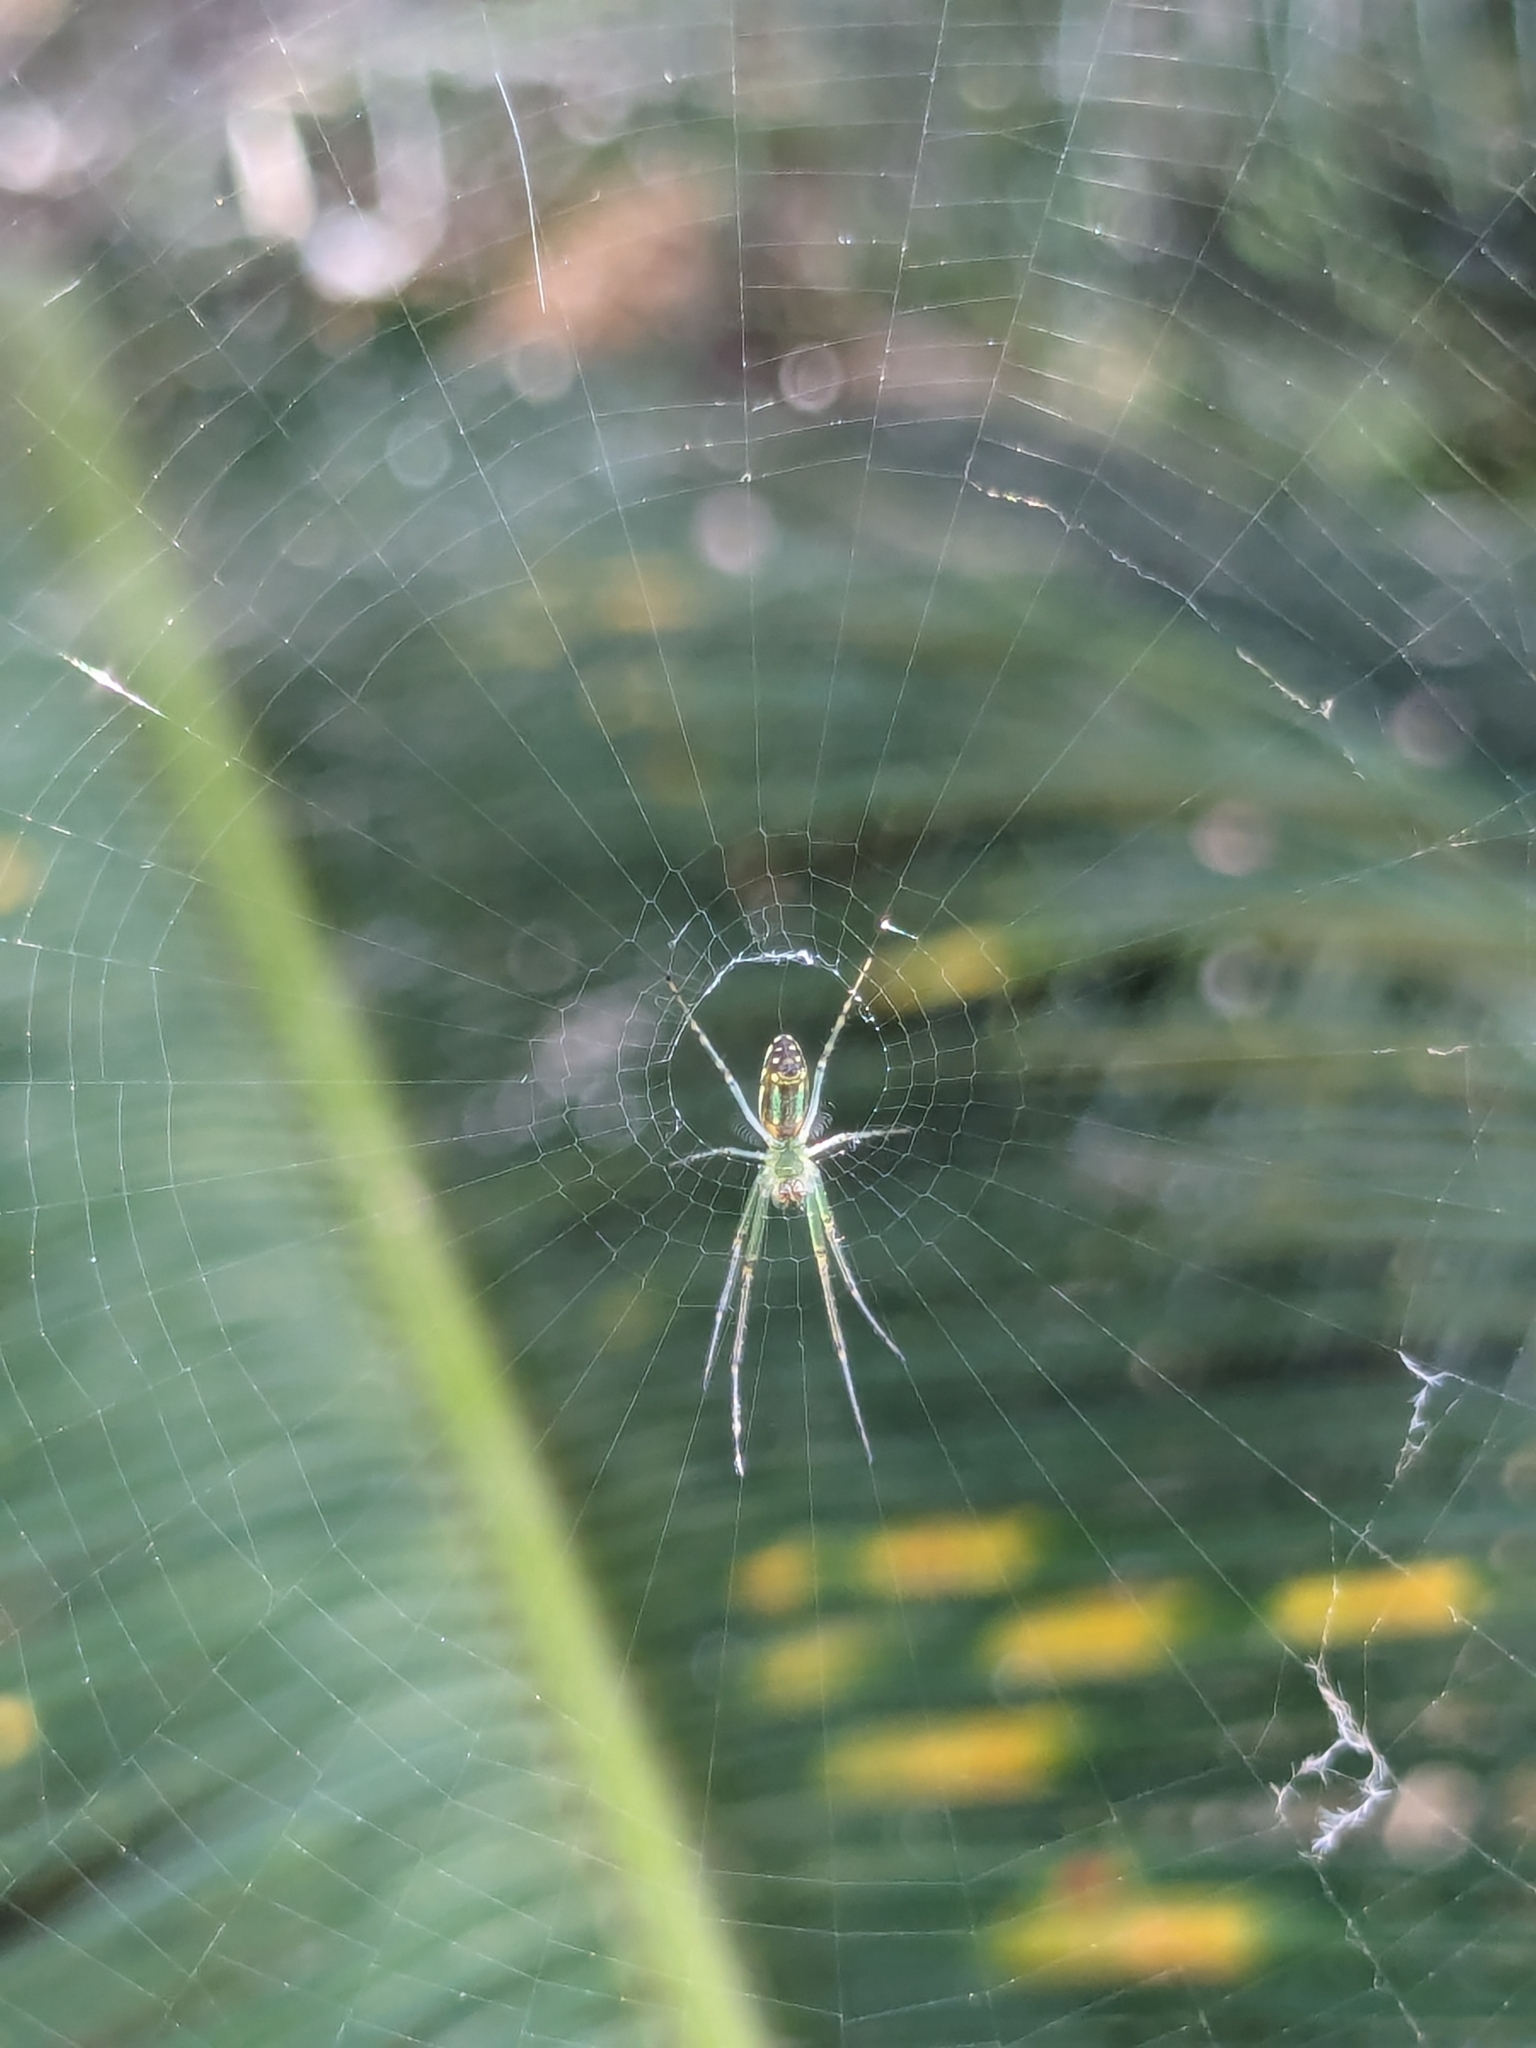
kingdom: Animalia
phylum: Arthropoda
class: Arachnida
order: Araneae
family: Tetragnathidae
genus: Leucauge
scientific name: Leucauge celebesiana
